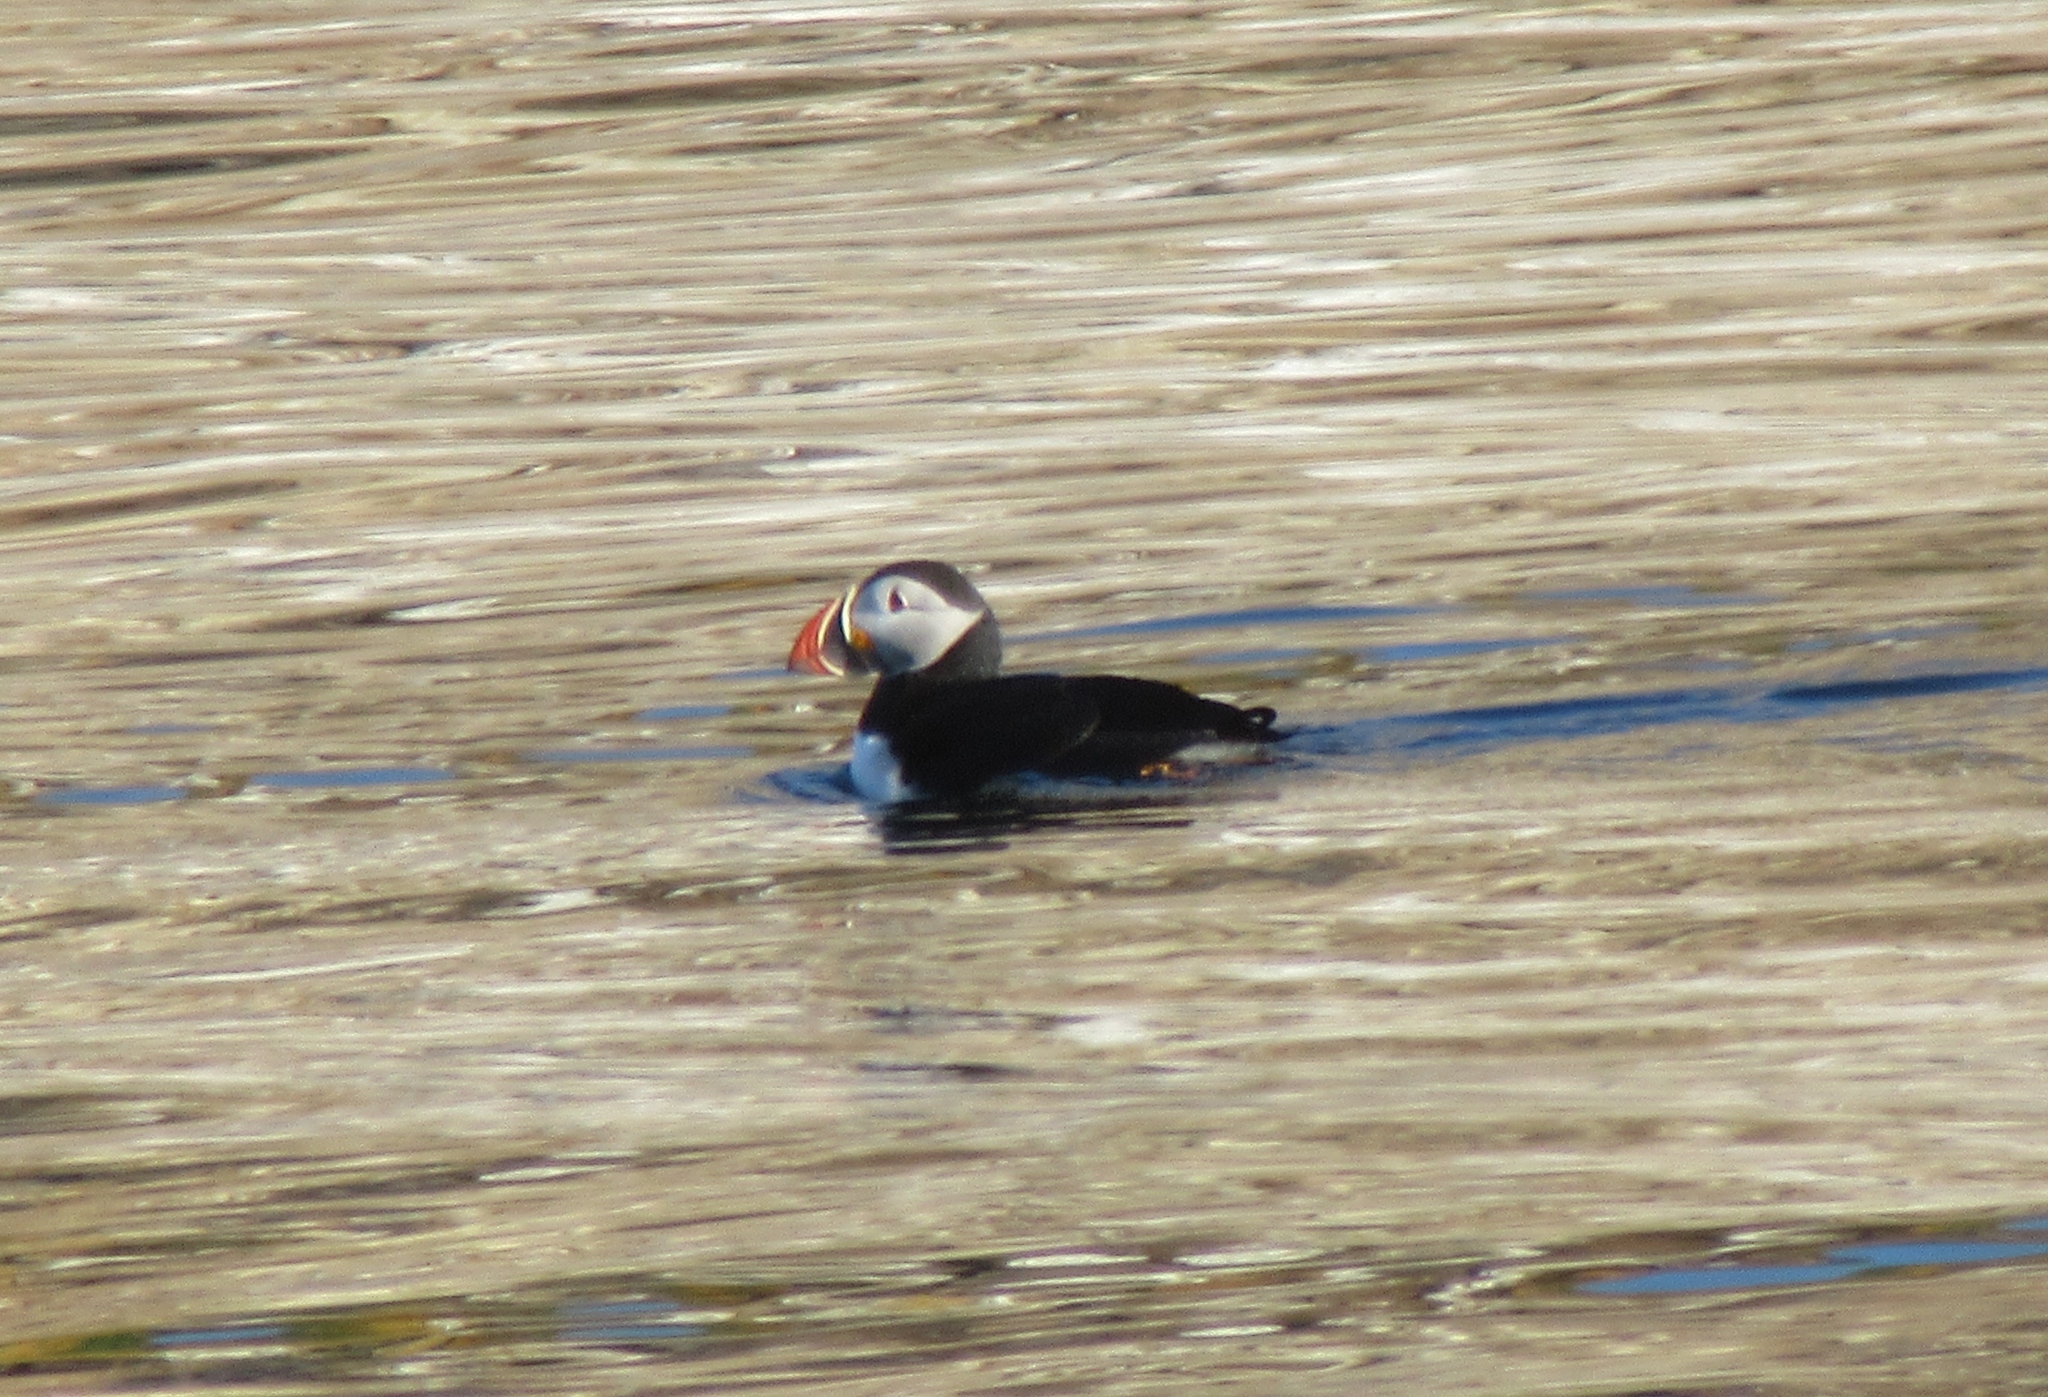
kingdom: Animalia
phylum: Chordata
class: Aves
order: Charadriiformes
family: Alcidae
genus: Fratercula
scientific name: Fratercula arctica
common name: Atlantic puffin
